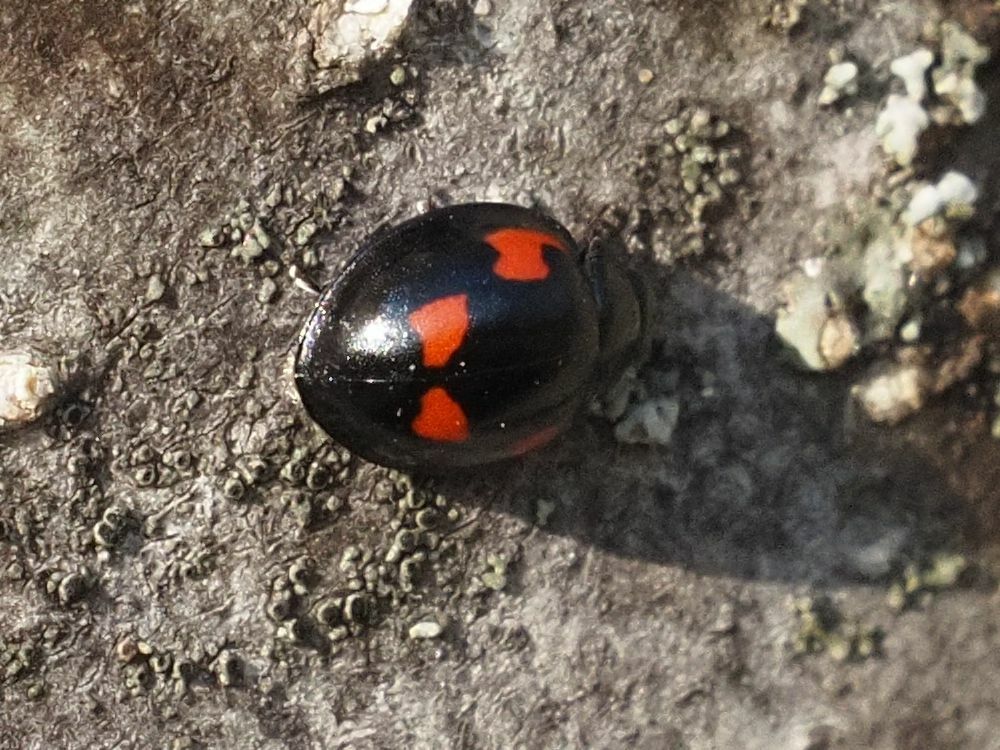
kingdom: Animalia
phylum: Arthropoda
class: Insecta
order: Coleoptera
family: Coccinellidae
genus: Brumus
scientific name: Brumus quadripustulatus
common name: Ladybird beetle
